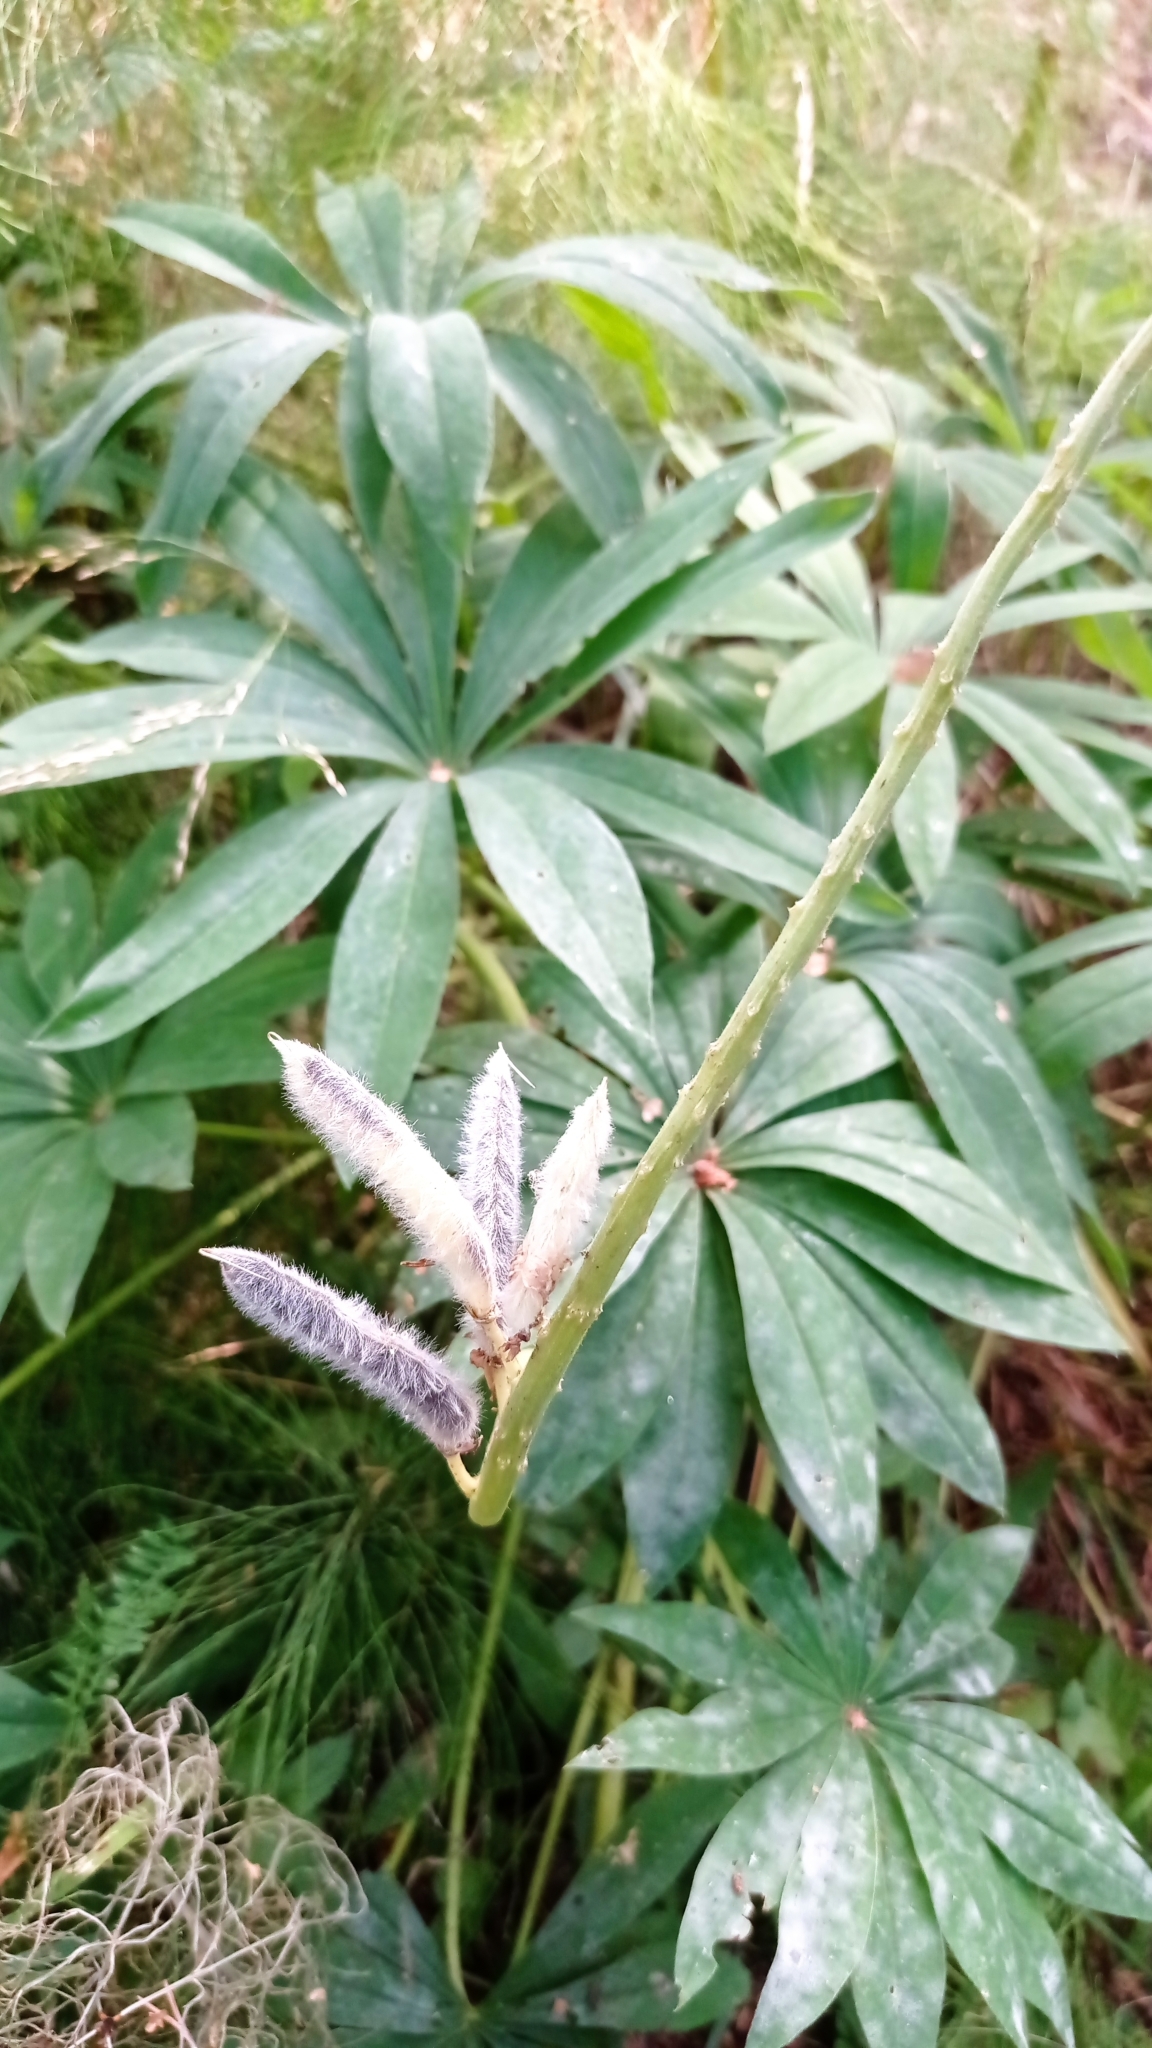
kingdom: Plantae
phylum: Tracheophyta
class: Magnoliopsida
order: Fabales
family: Fabaceae
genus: Lupinus
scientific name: Lupinus polyphyllus
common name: Garden lupin
